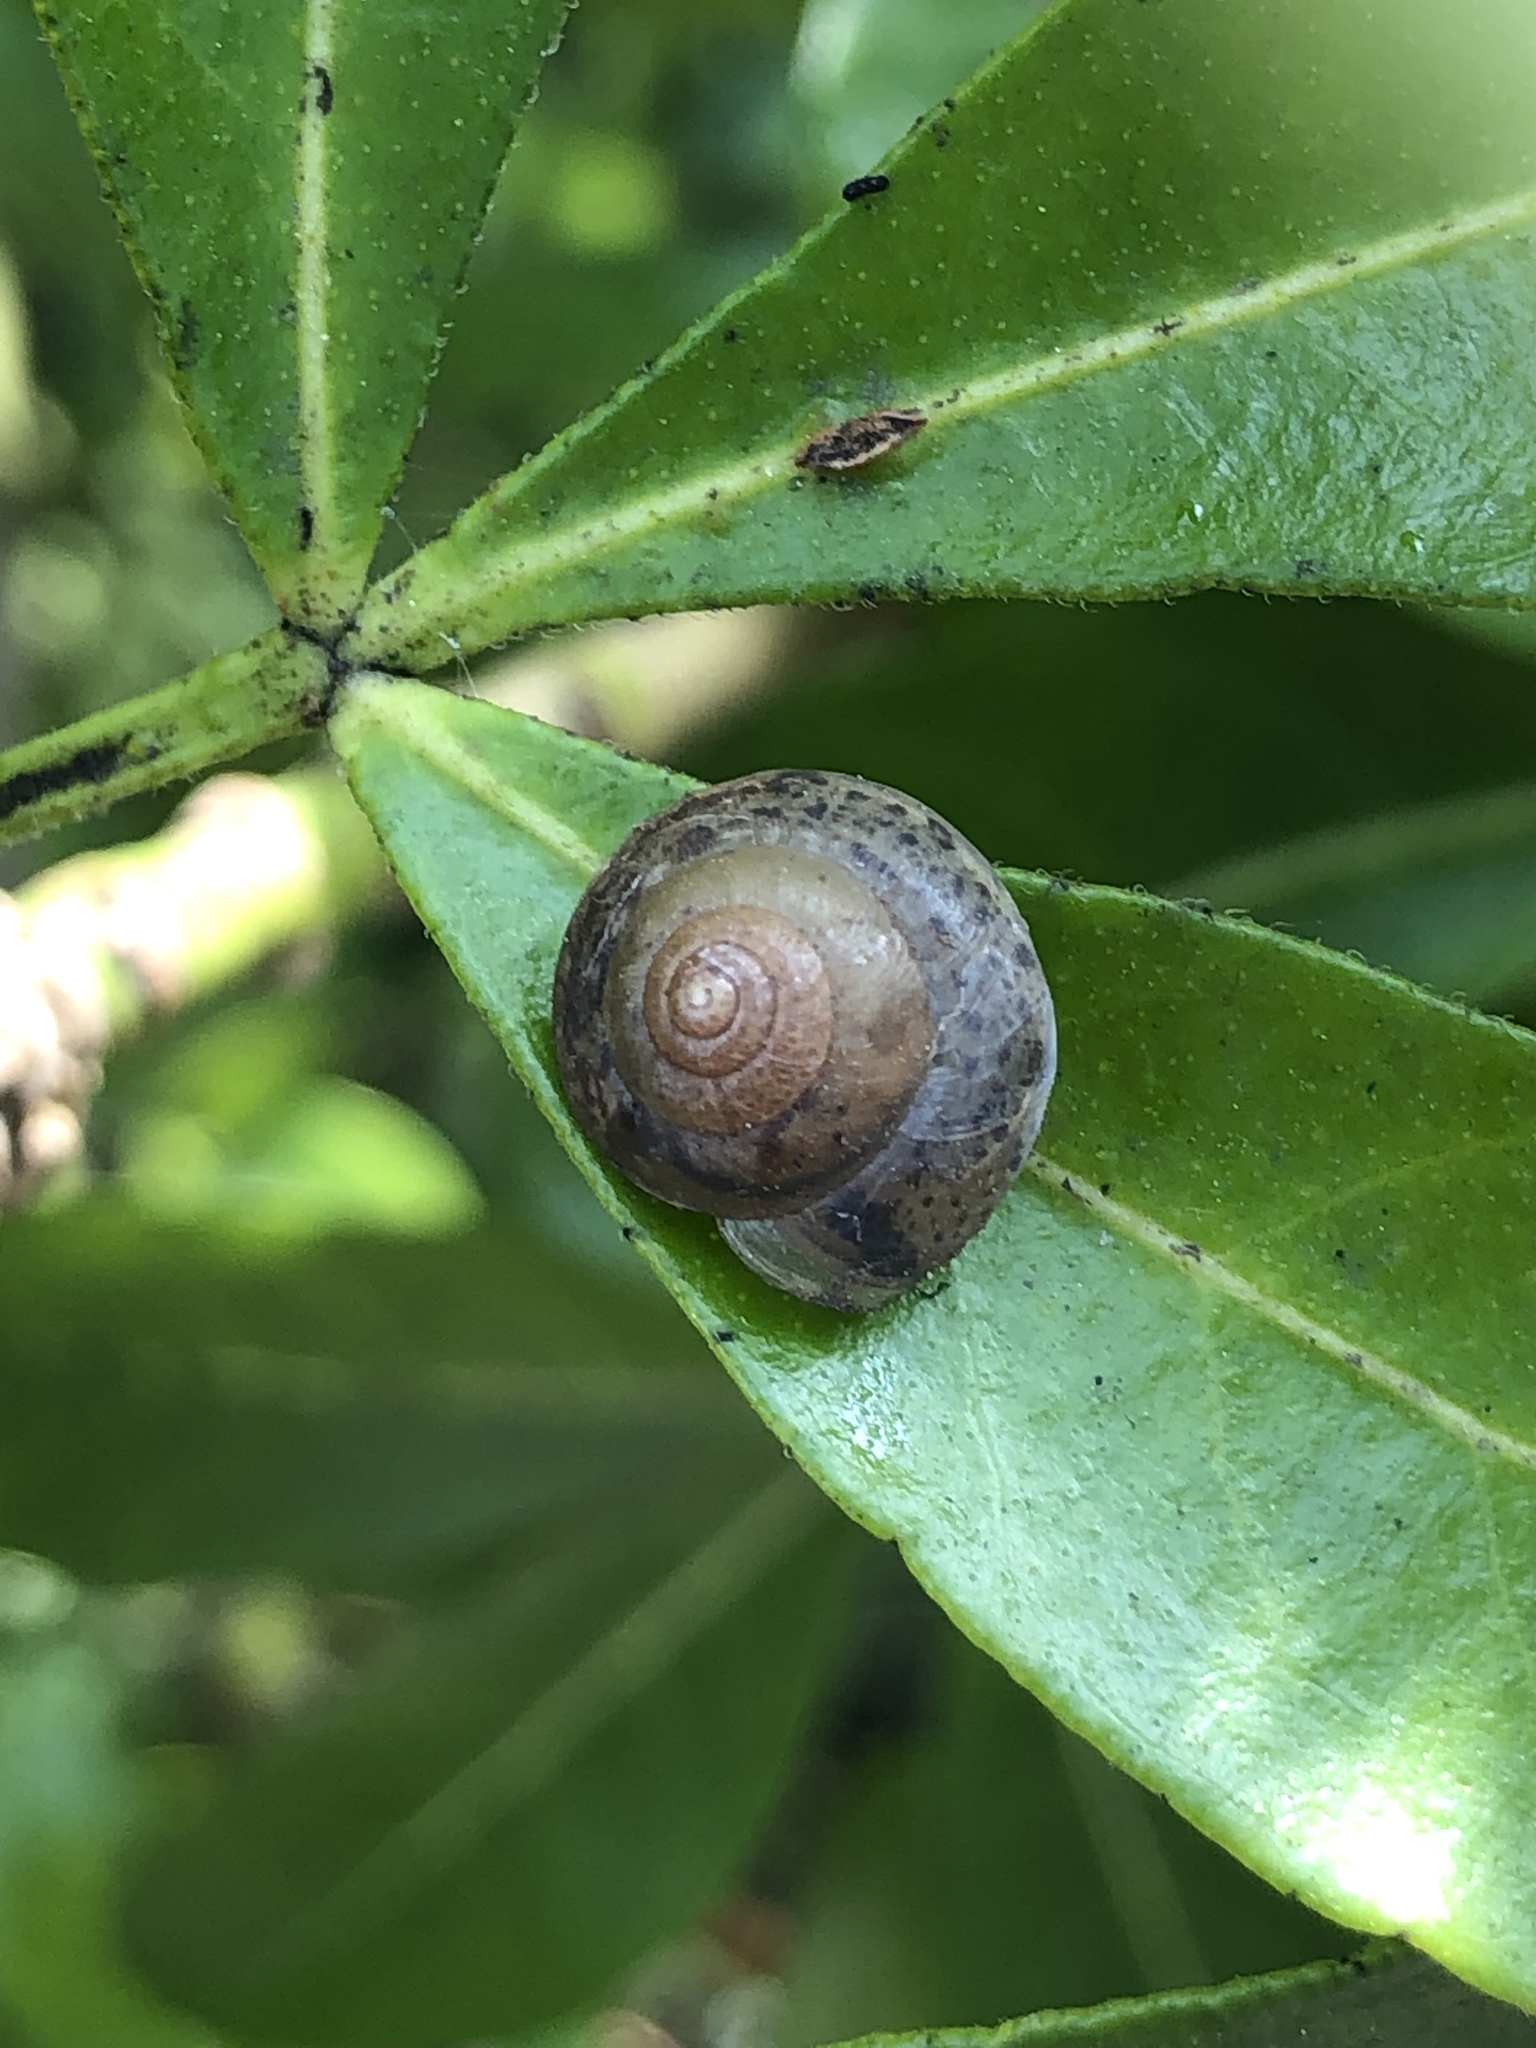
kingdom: Animalia
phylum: Mollusca
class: Gastropoda
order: Stylommatophora
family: Hygromiidae
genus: Hygromia
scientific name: Hygromia cinctella
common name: Girdled snail
